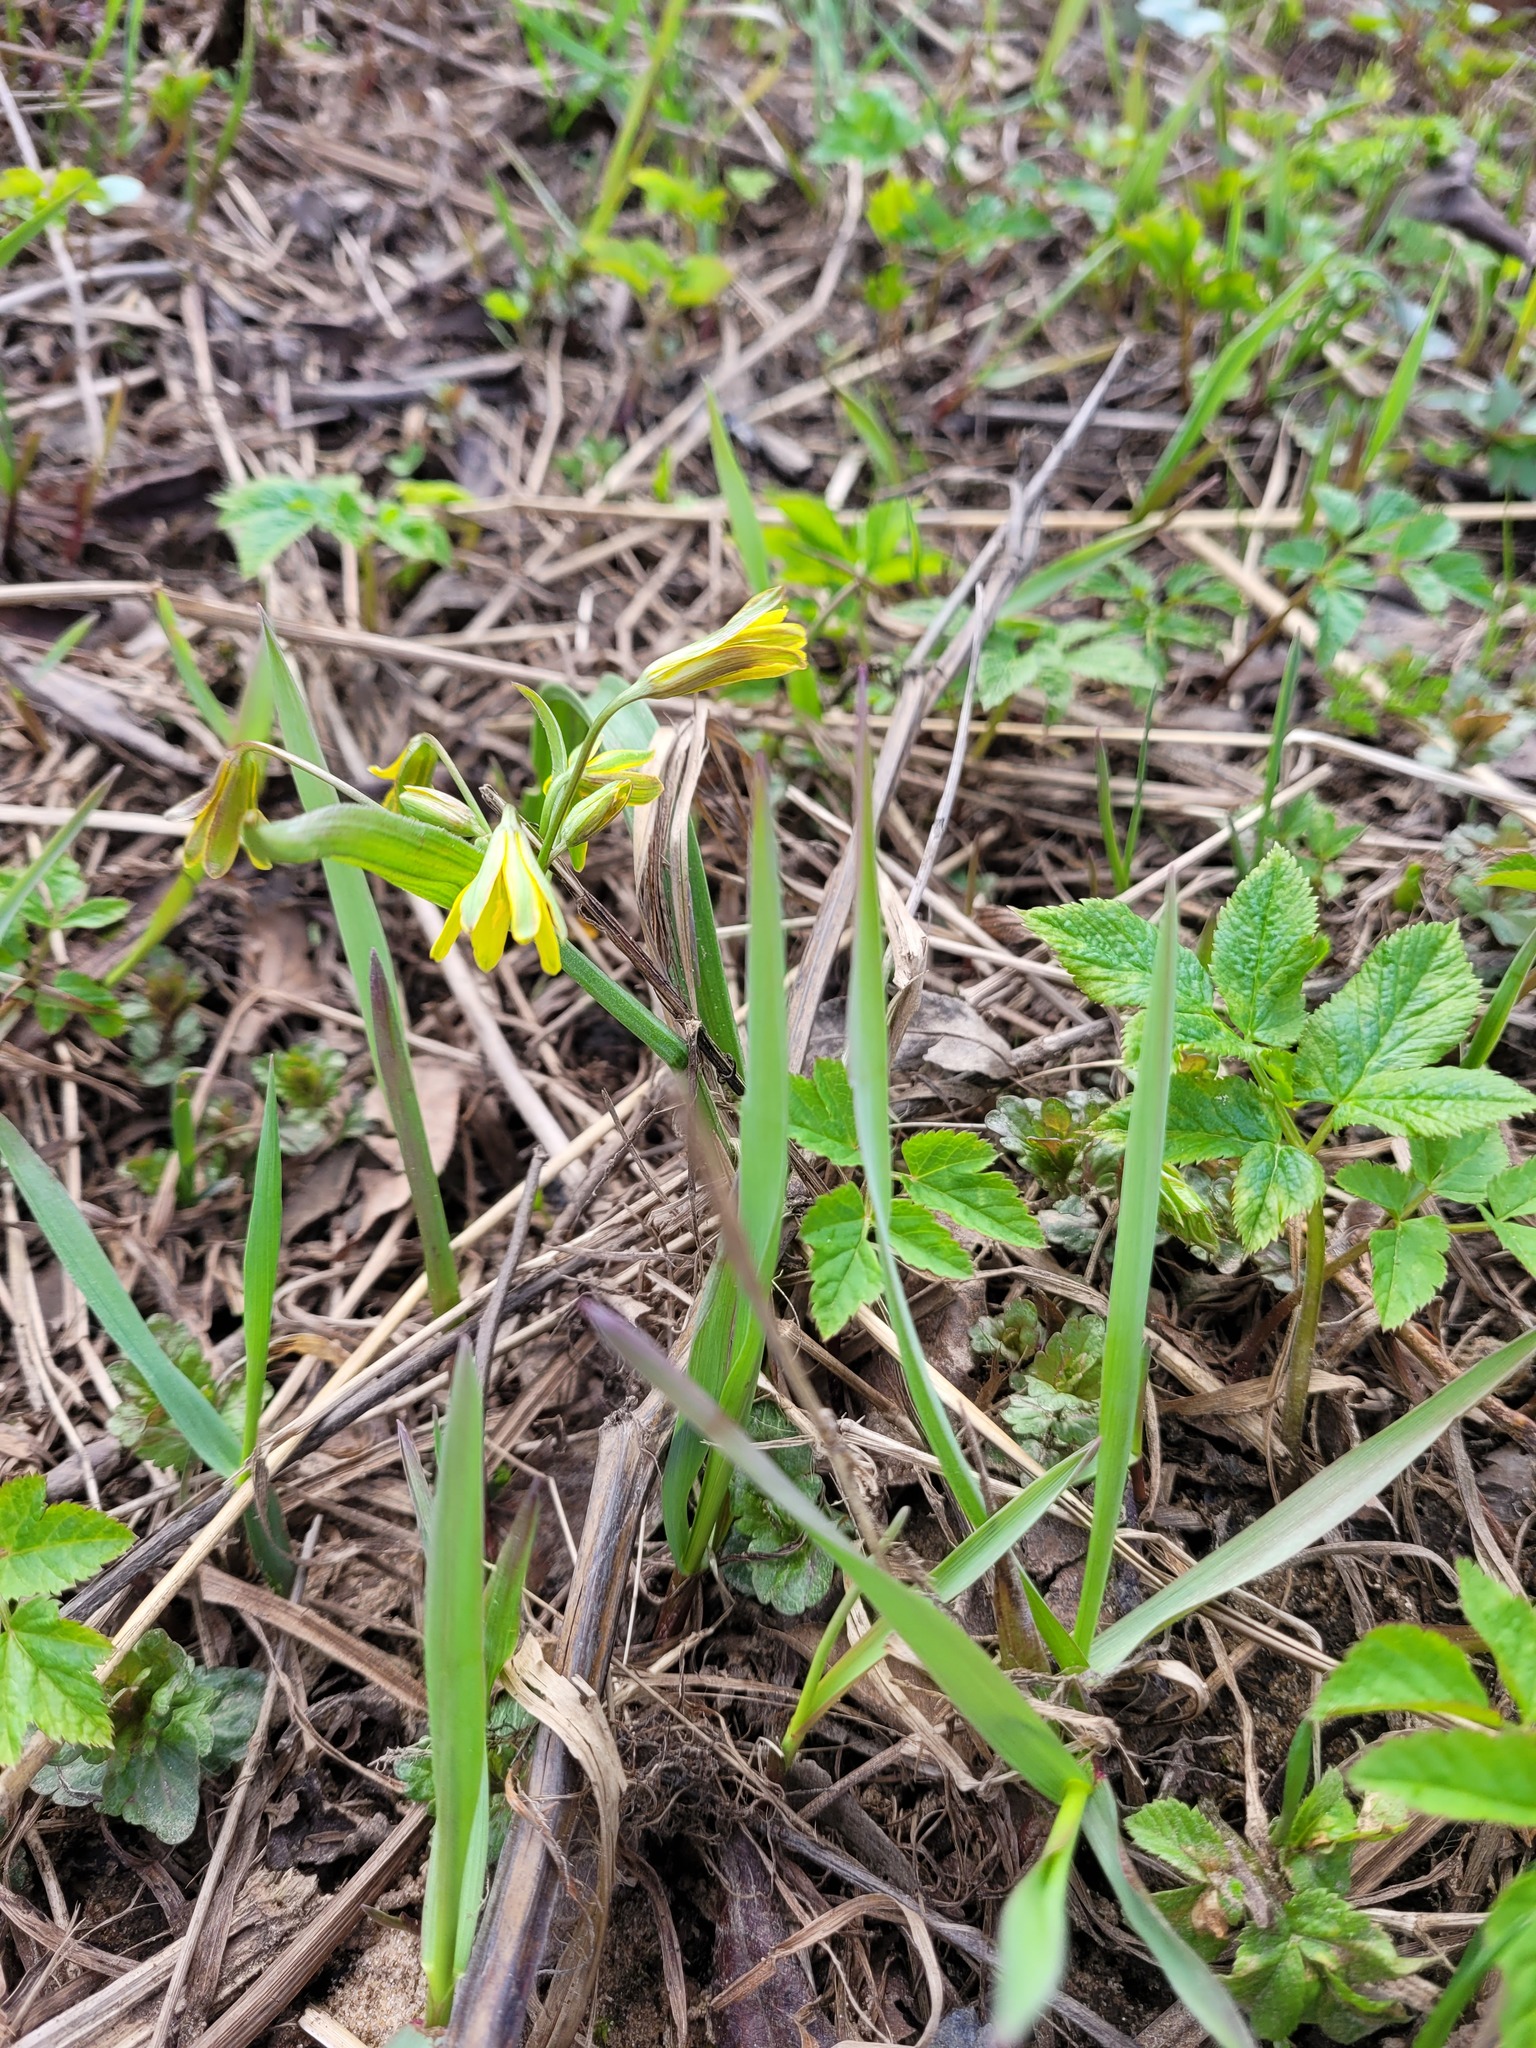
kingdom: Plantae
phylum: Tracheophyta
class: Liliopsida
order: Liliales
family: Liliaceae
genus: Gagea
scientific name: Gagea lutea
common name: Yellow star-of-bethlehem
